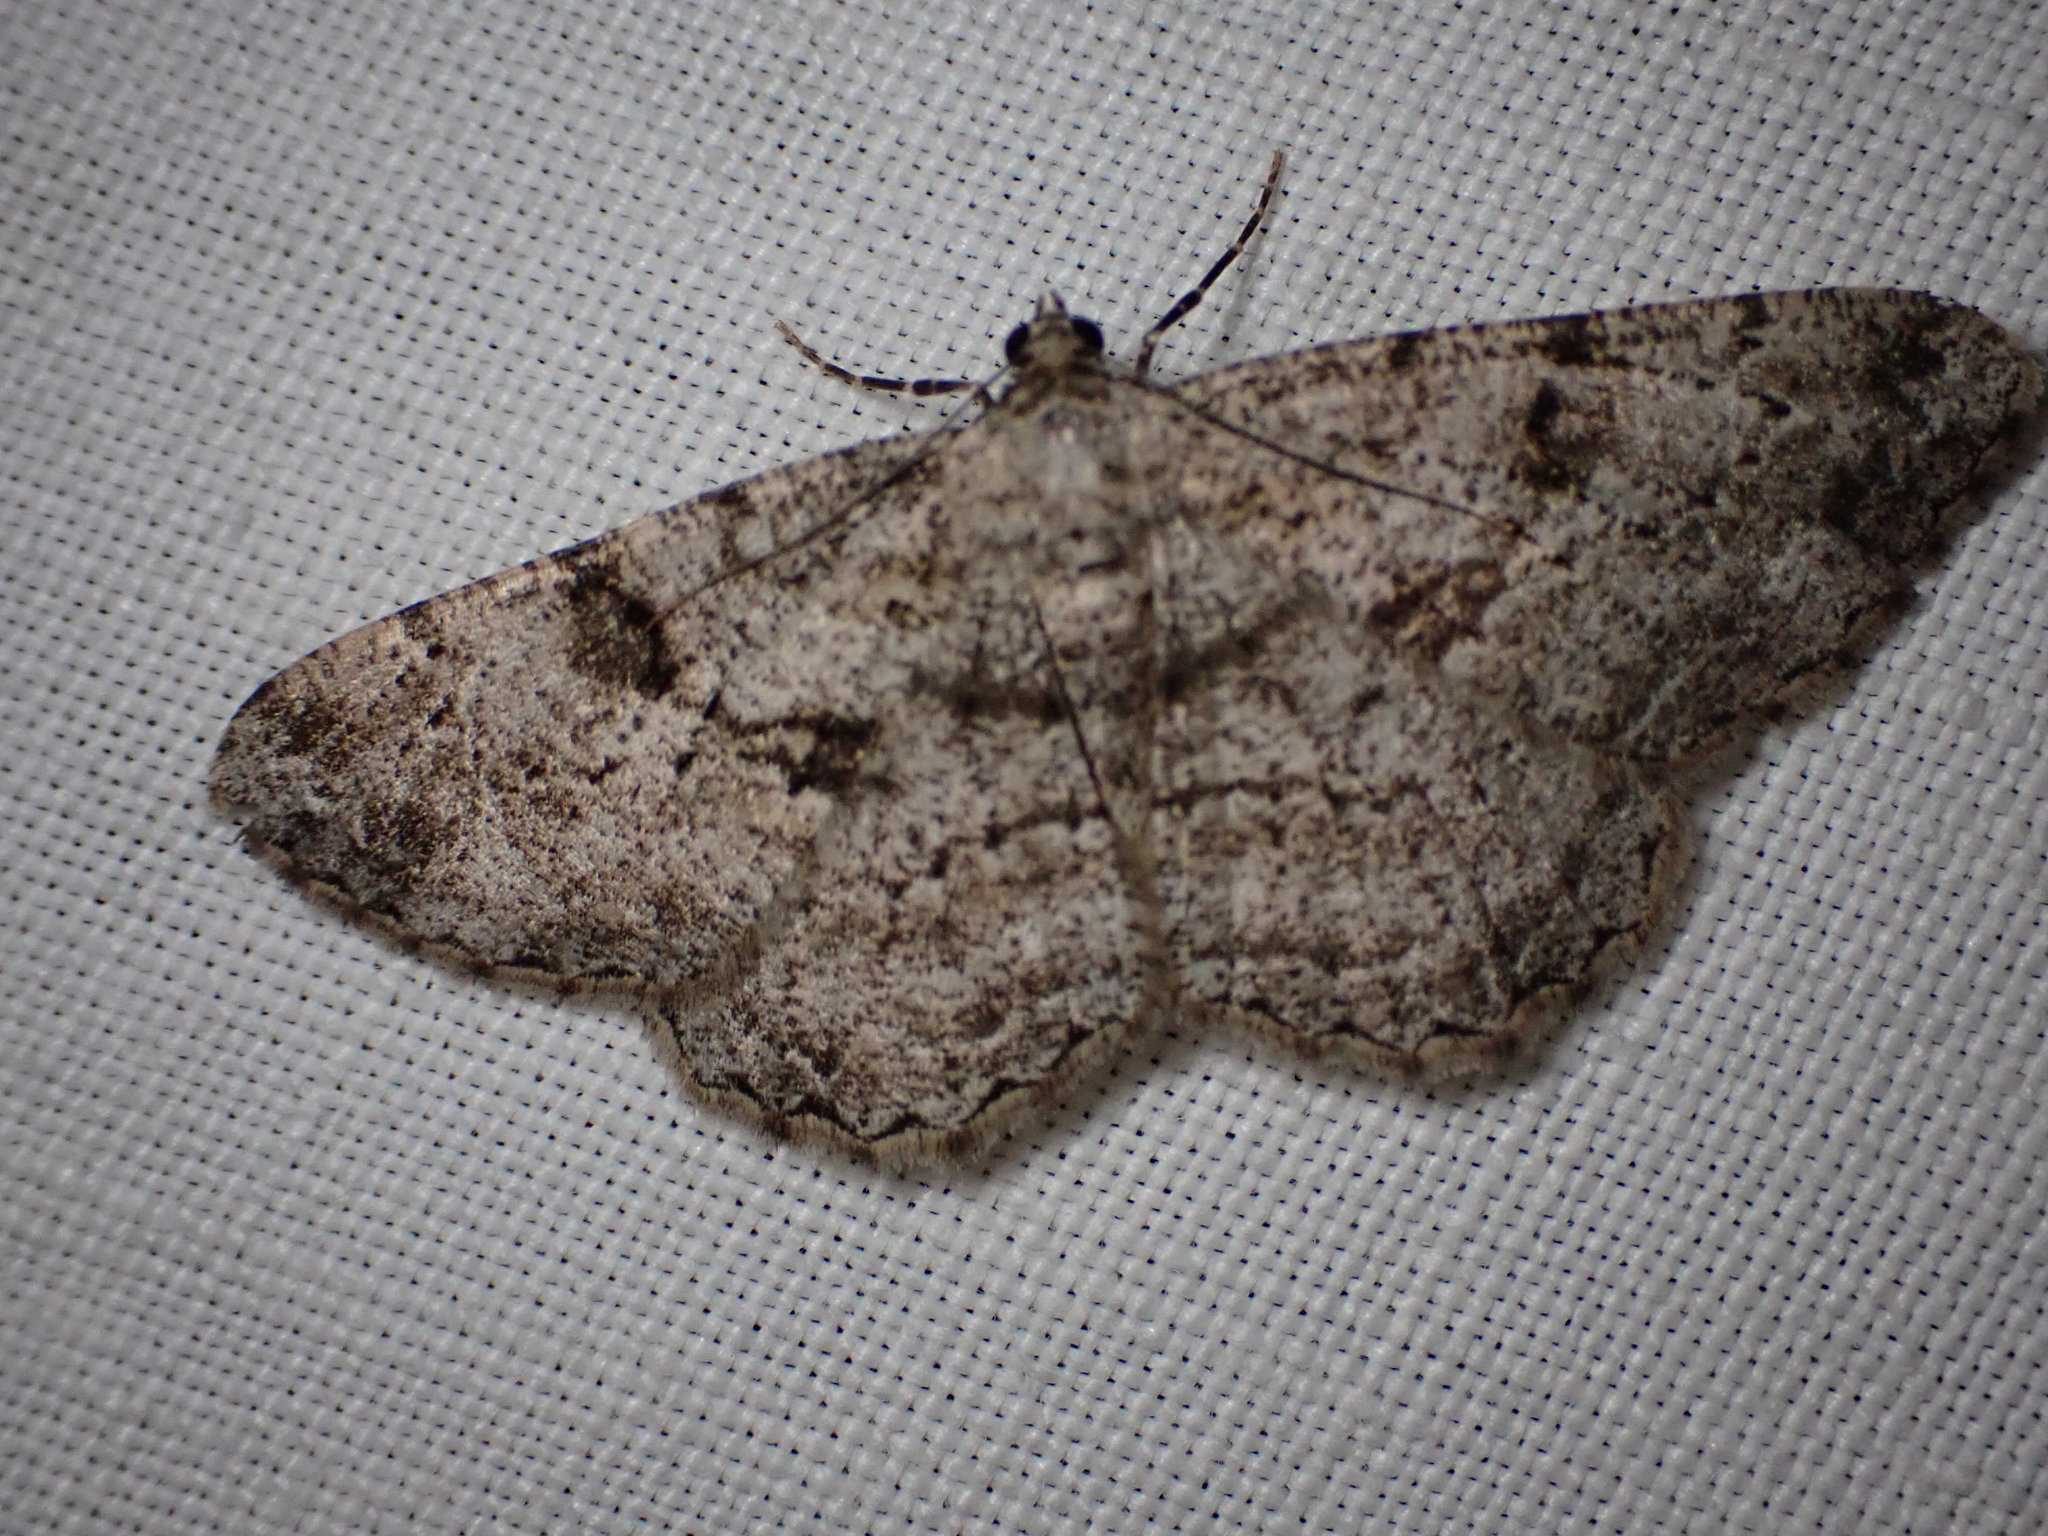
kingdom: Animalia
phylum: Arthropoda
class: Insecta
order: Lepidoptera
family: Geometridae
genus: Peribatodes
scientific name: Peribatodes rhomboidaria
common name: Willow beauty
